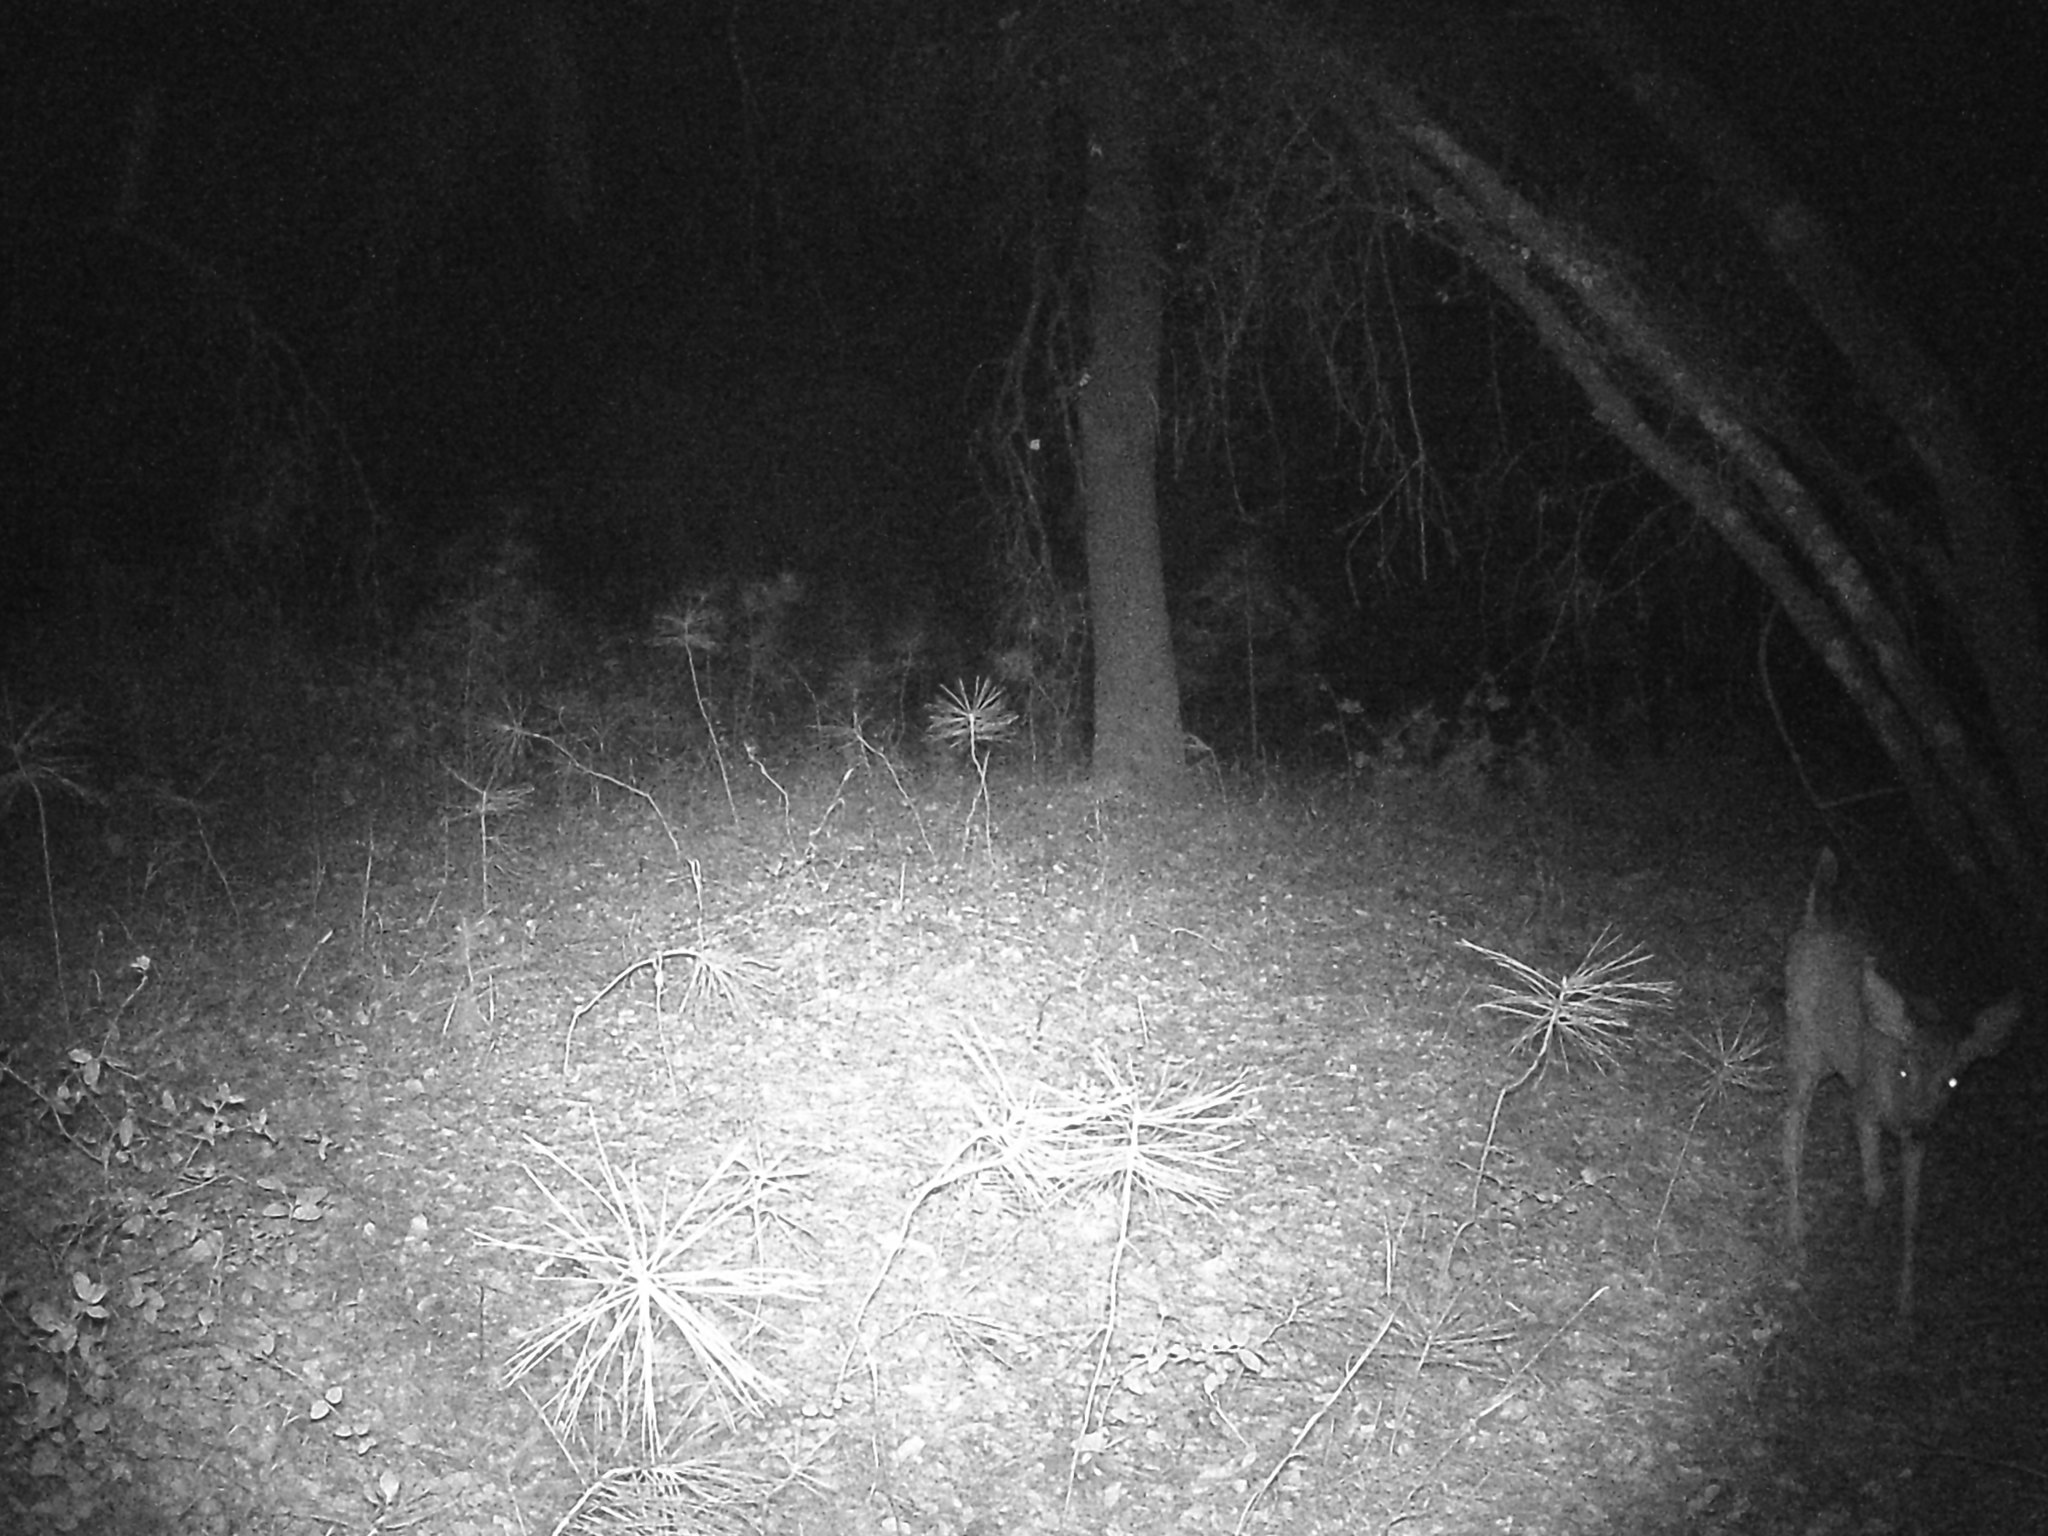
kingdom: Animalia
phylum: Chordata
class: Mammalia
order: Artiodactyla
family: Cervidae
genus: Odocoileus
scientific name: Odocoileus hemionus
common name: Mule deer
